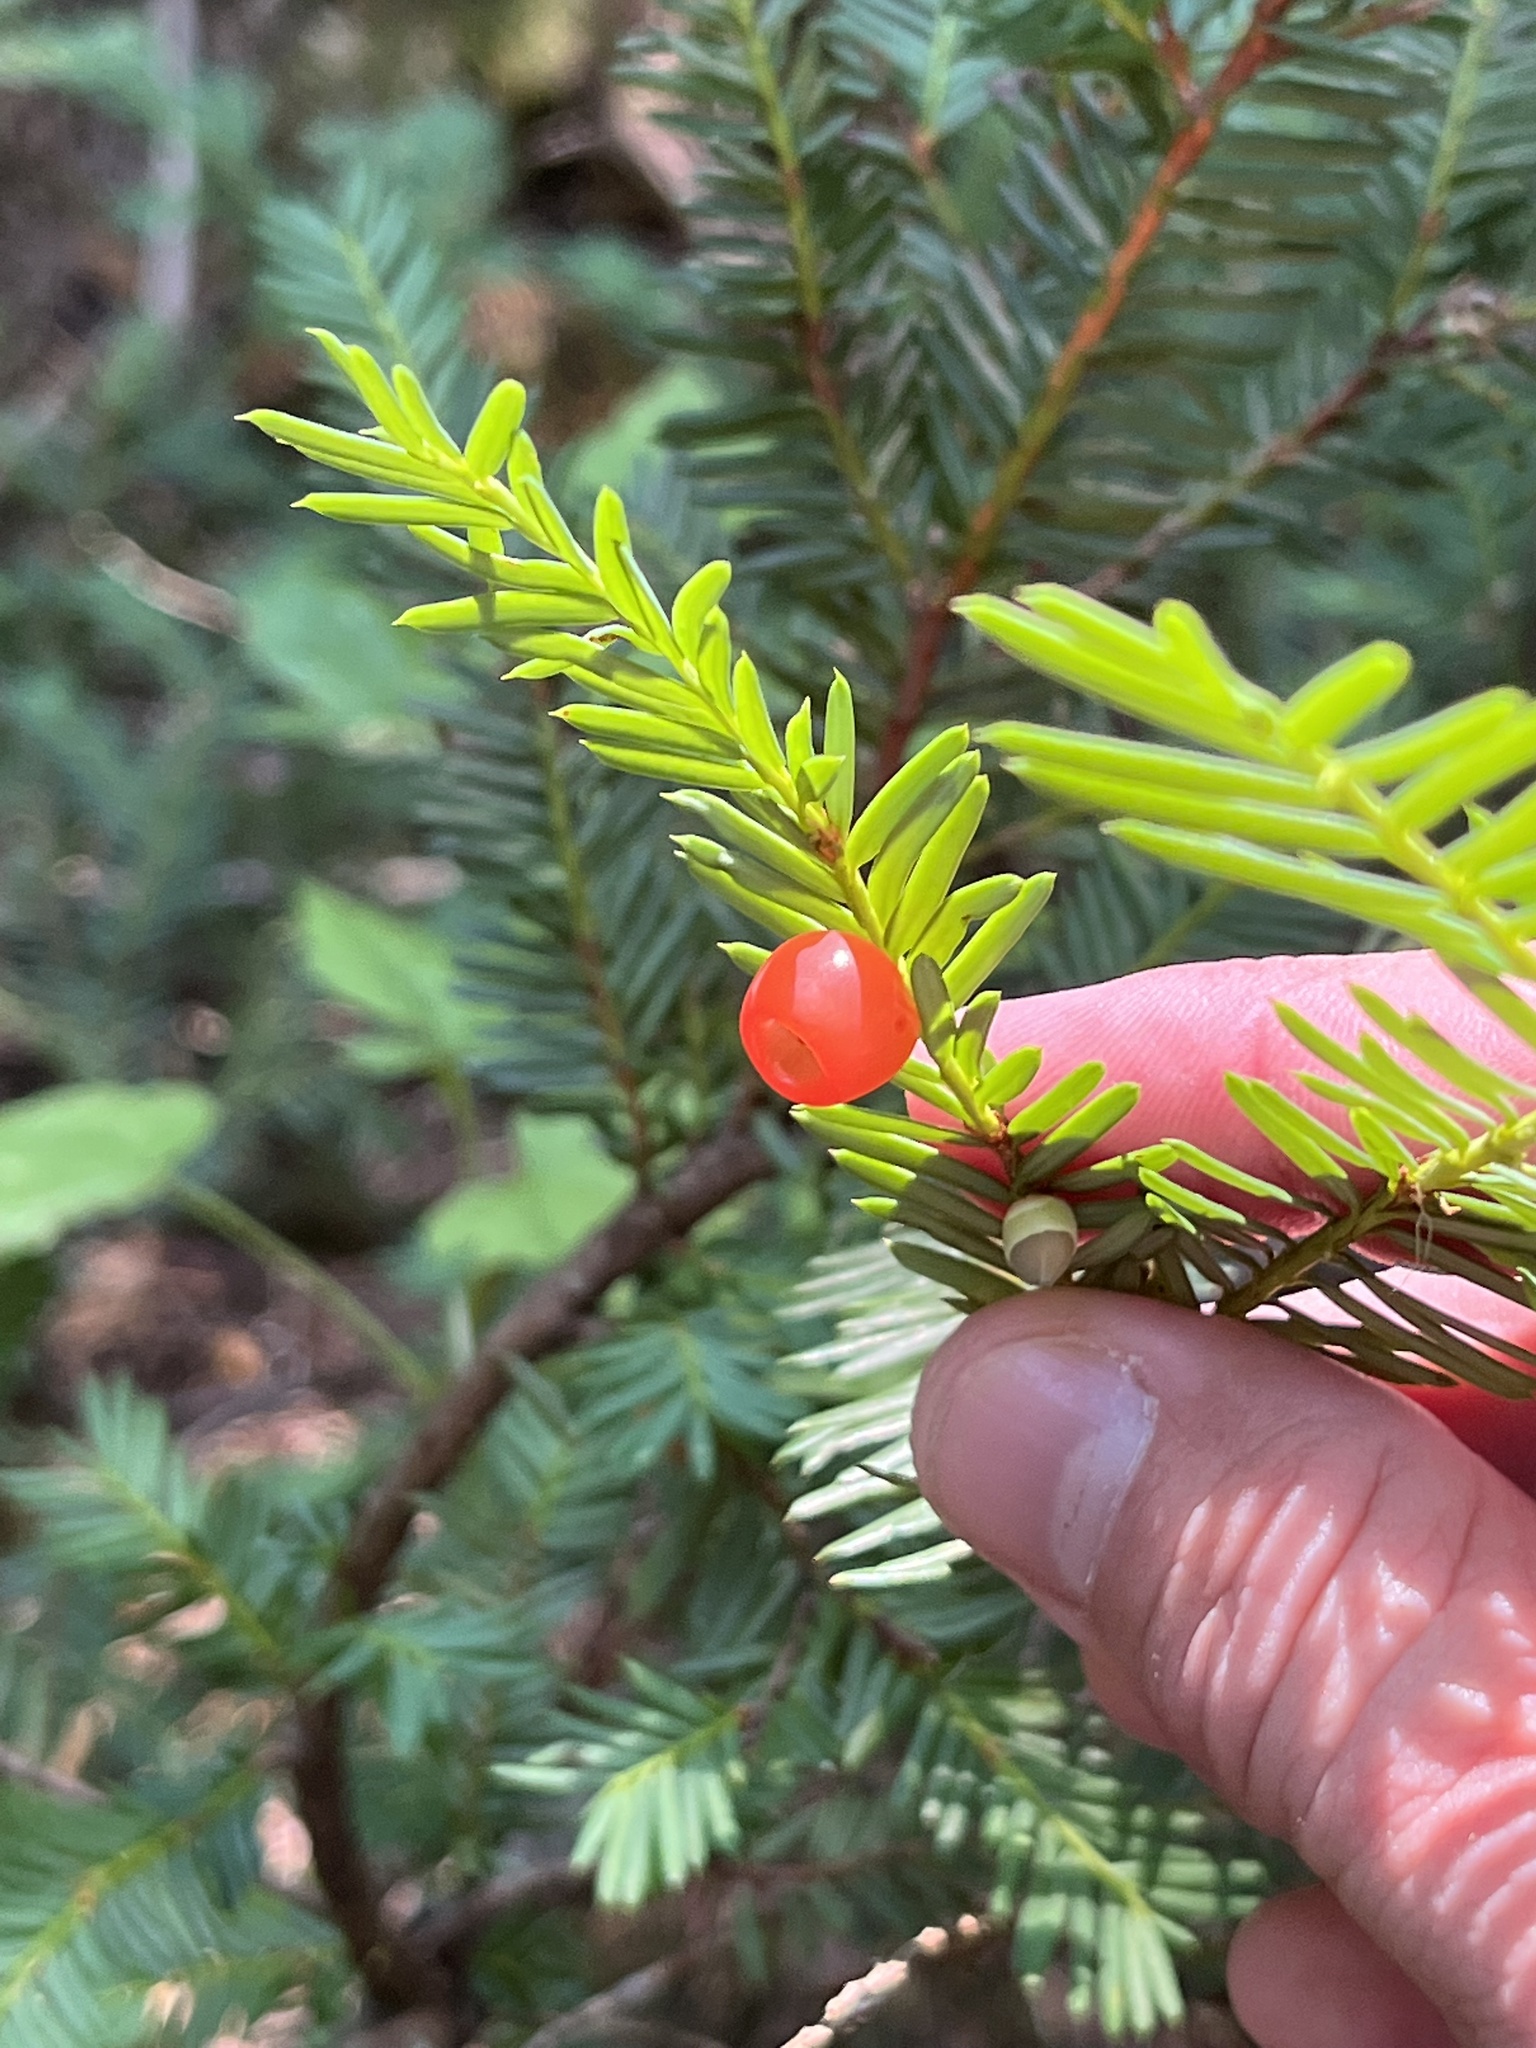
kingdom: Plantae
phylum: Tracheophyta
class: Pinopsida
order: Pinales
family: Taxaceae
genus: Taxus
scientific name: Taxus brevifolia
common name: Pacific yew
